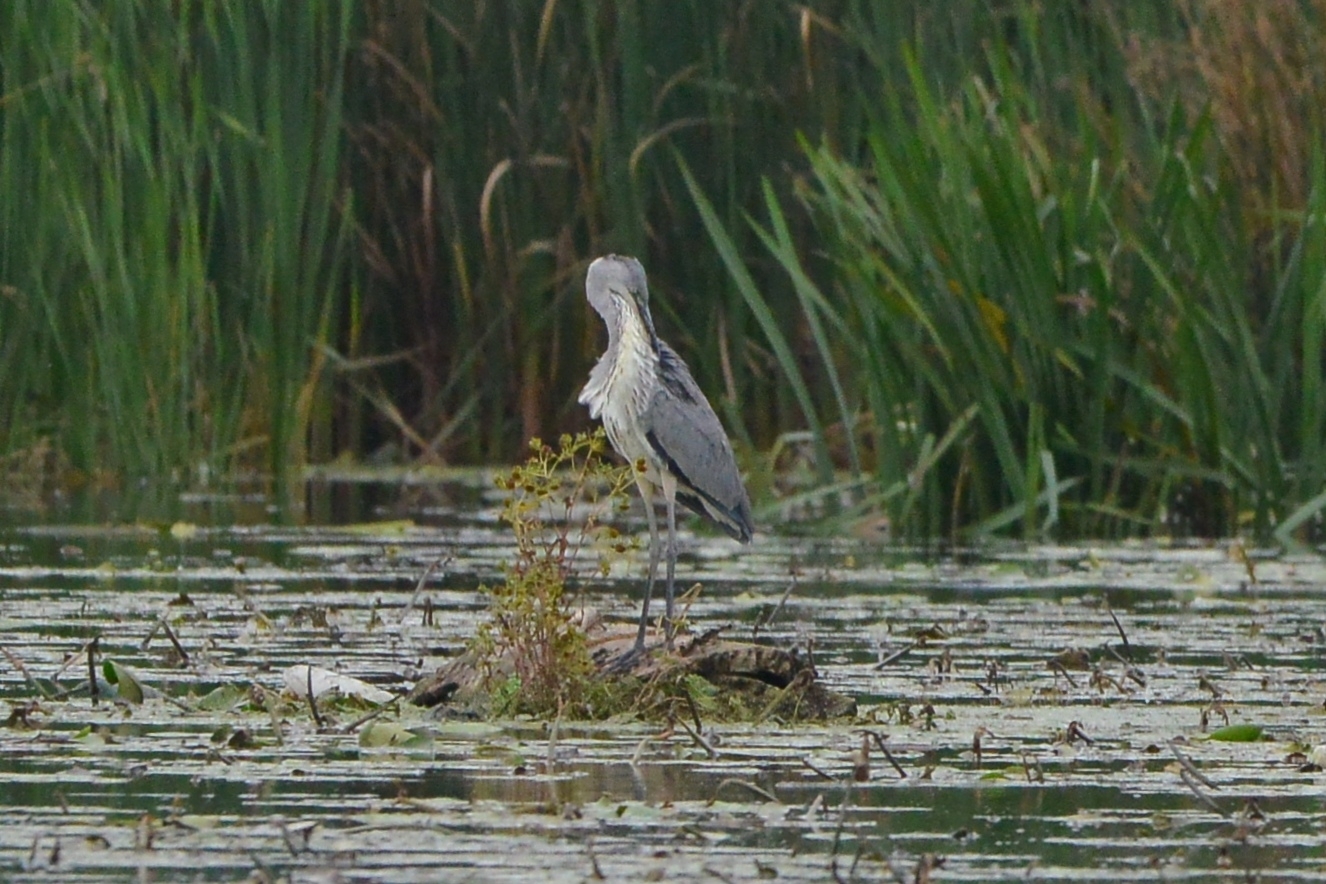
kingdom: Animalia
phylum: Chordata
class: Aves
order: Pelecaniformes
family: Ardeidae
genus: Ardea
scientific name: Ardea cinerea
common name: Grey heron
